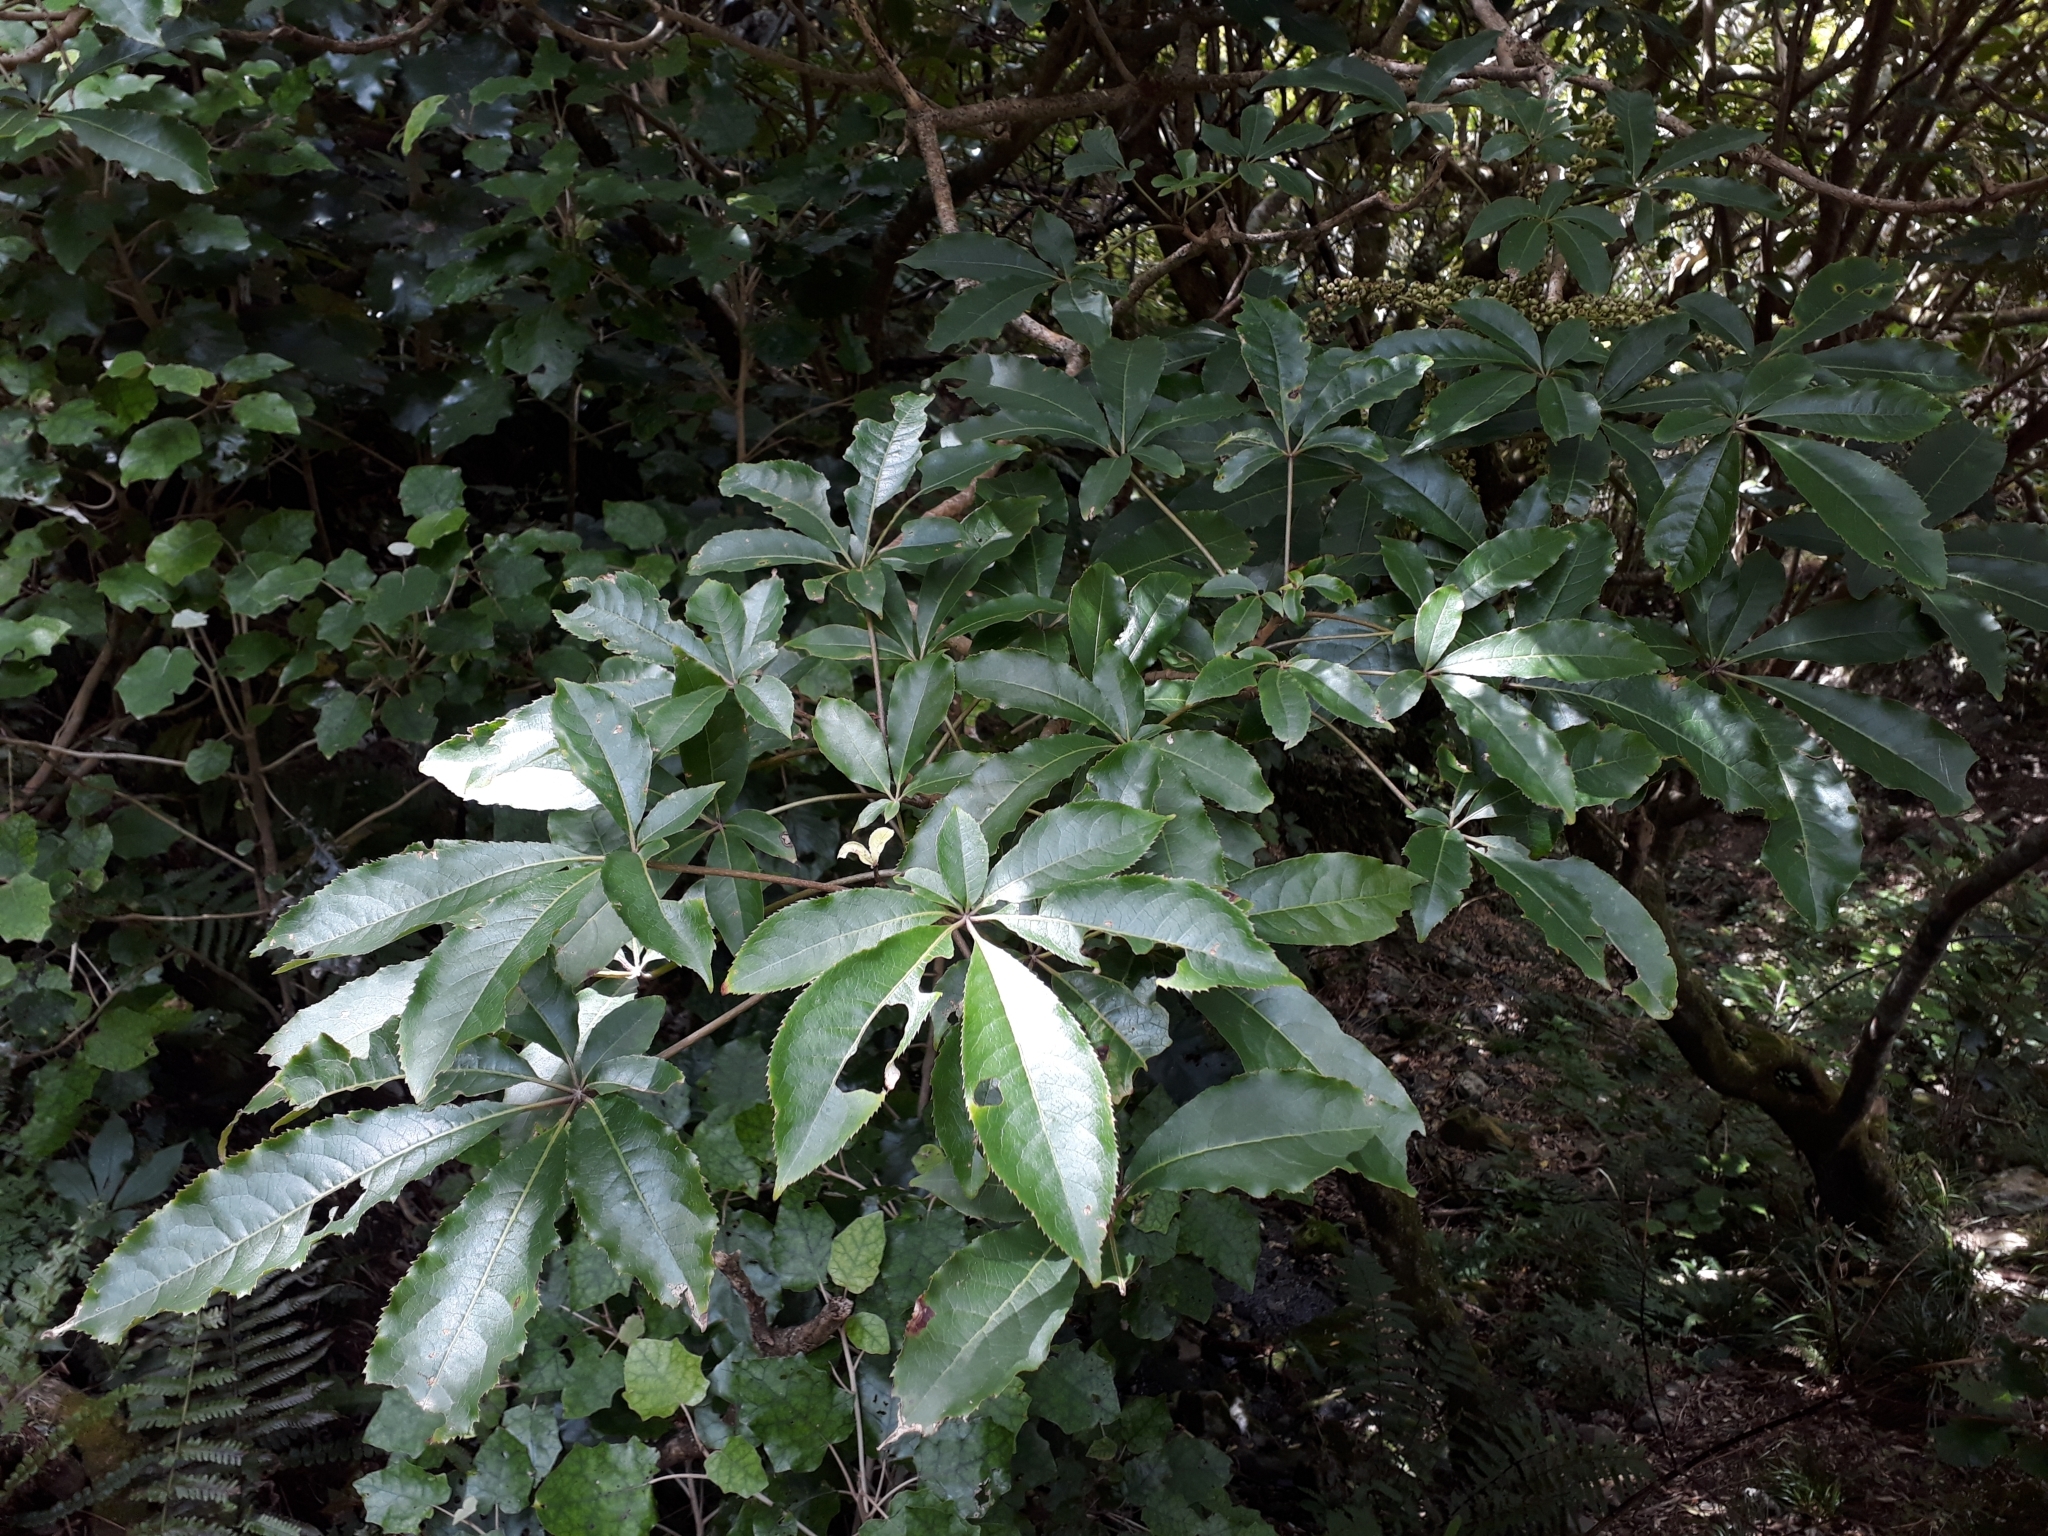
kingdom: Plantae
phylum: Tracheophyta
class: Magnoliopsida
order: Apiales
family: Araliaceae
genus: Schefflera
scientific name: Schefflera digitata
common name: Pate
